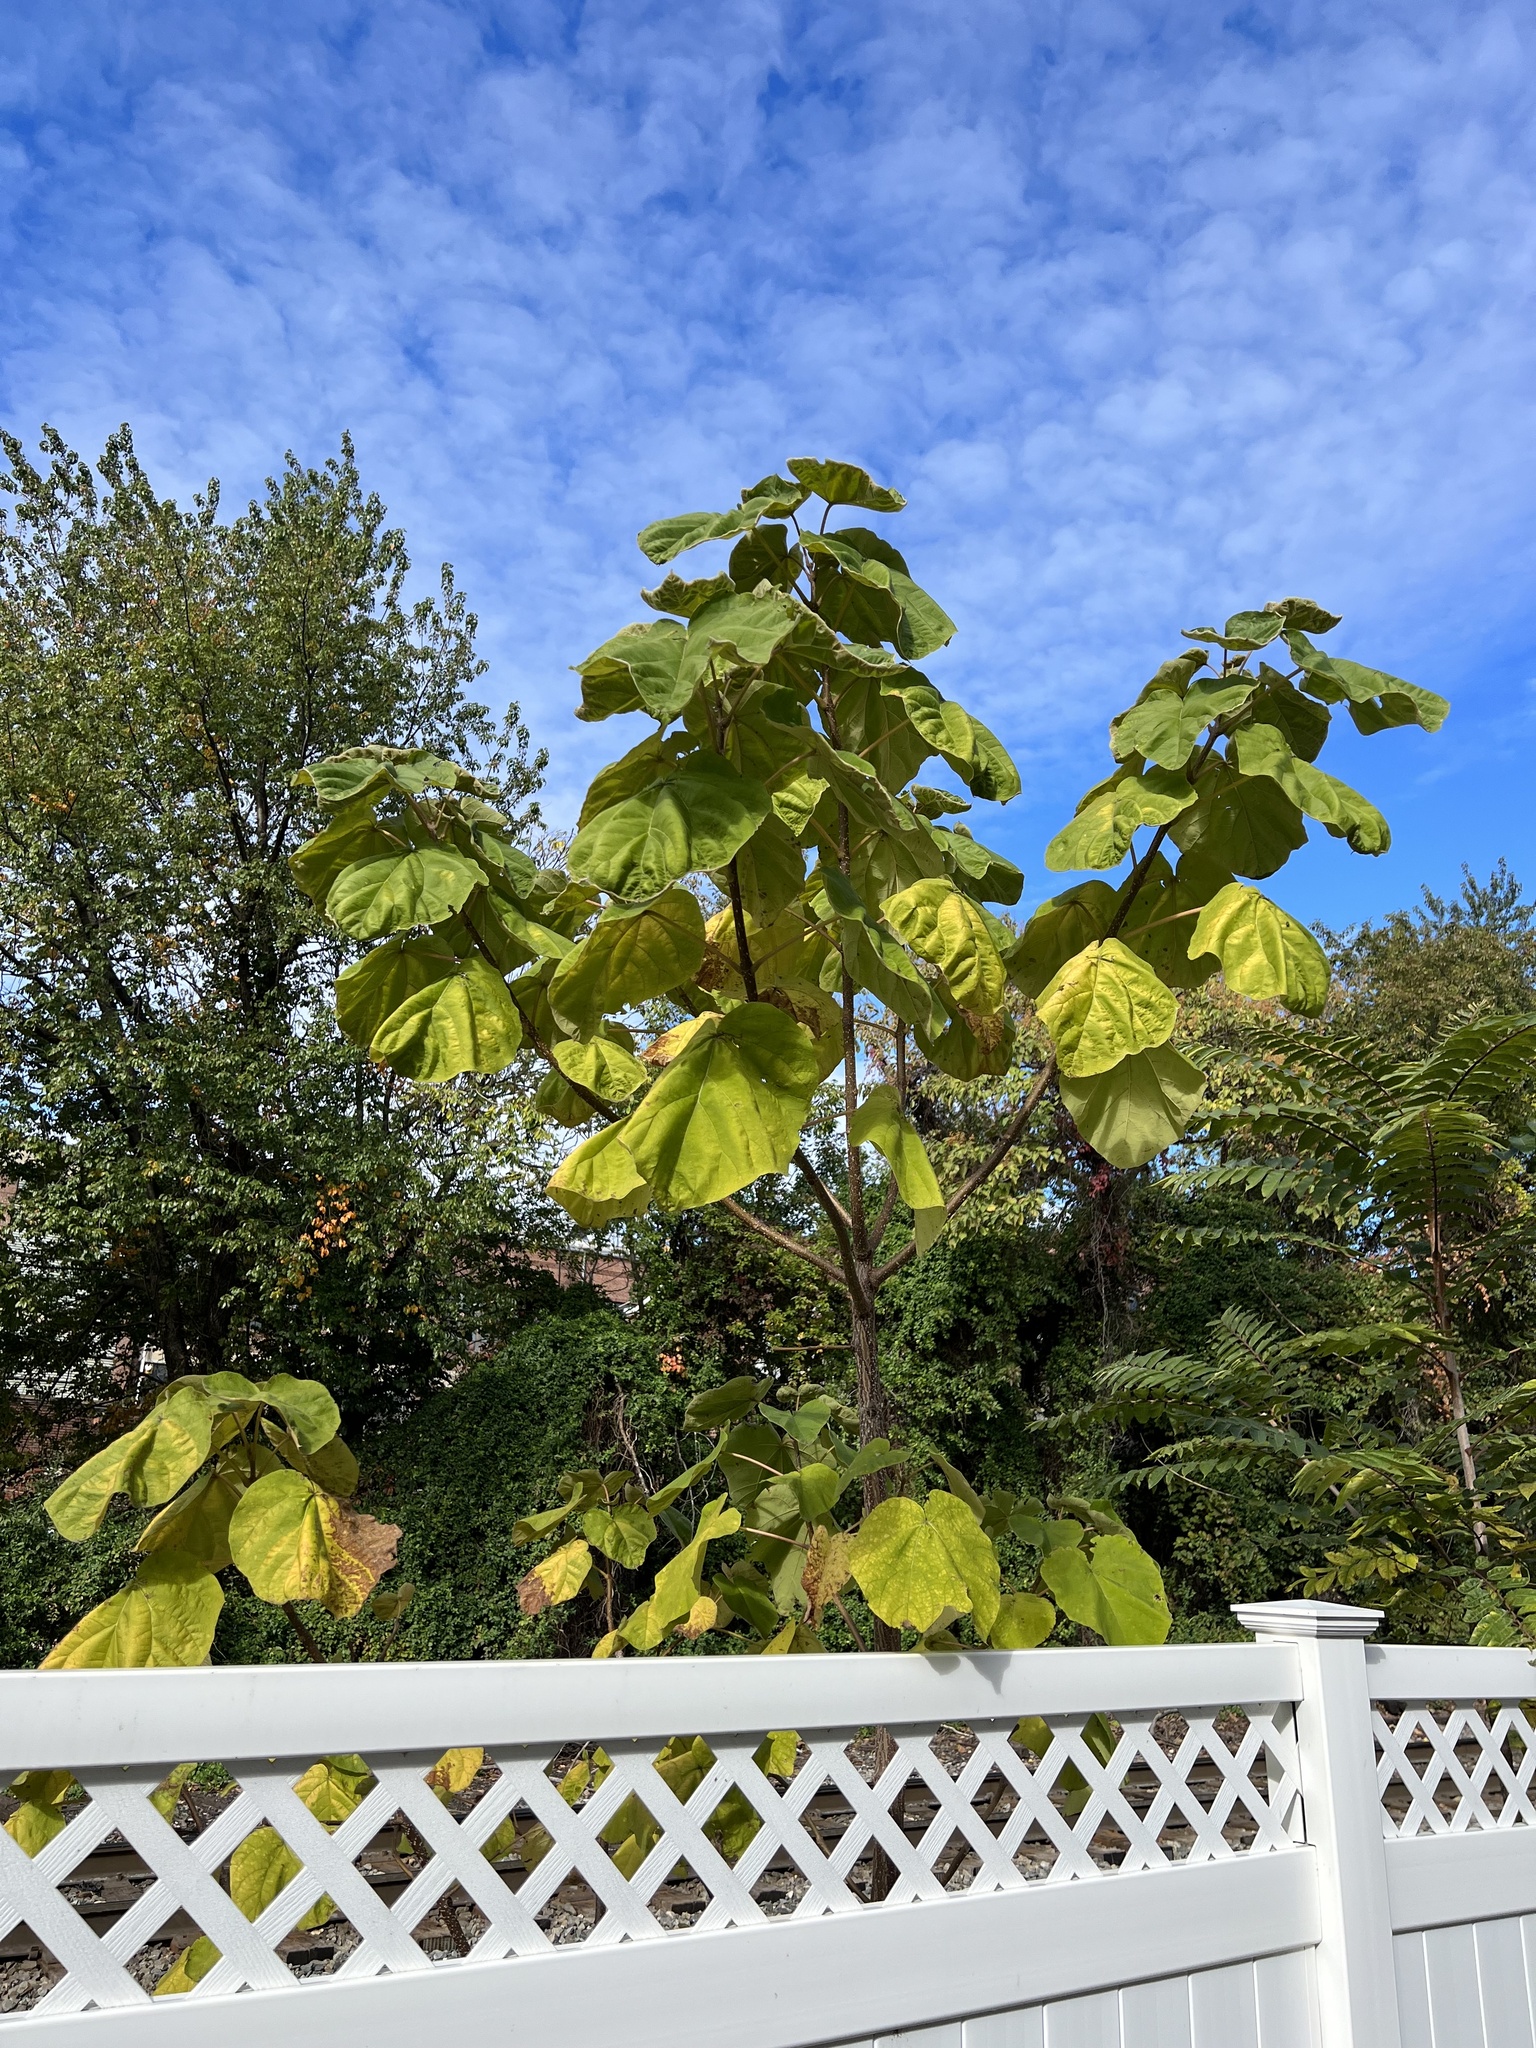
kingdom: Plantae
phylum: Tracheophyta
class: Magnoliopsida
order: Lamiales
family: Paulowniaceae
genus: Paulownia
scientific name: Paulownia tomentosa
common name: Foxglove-tree
